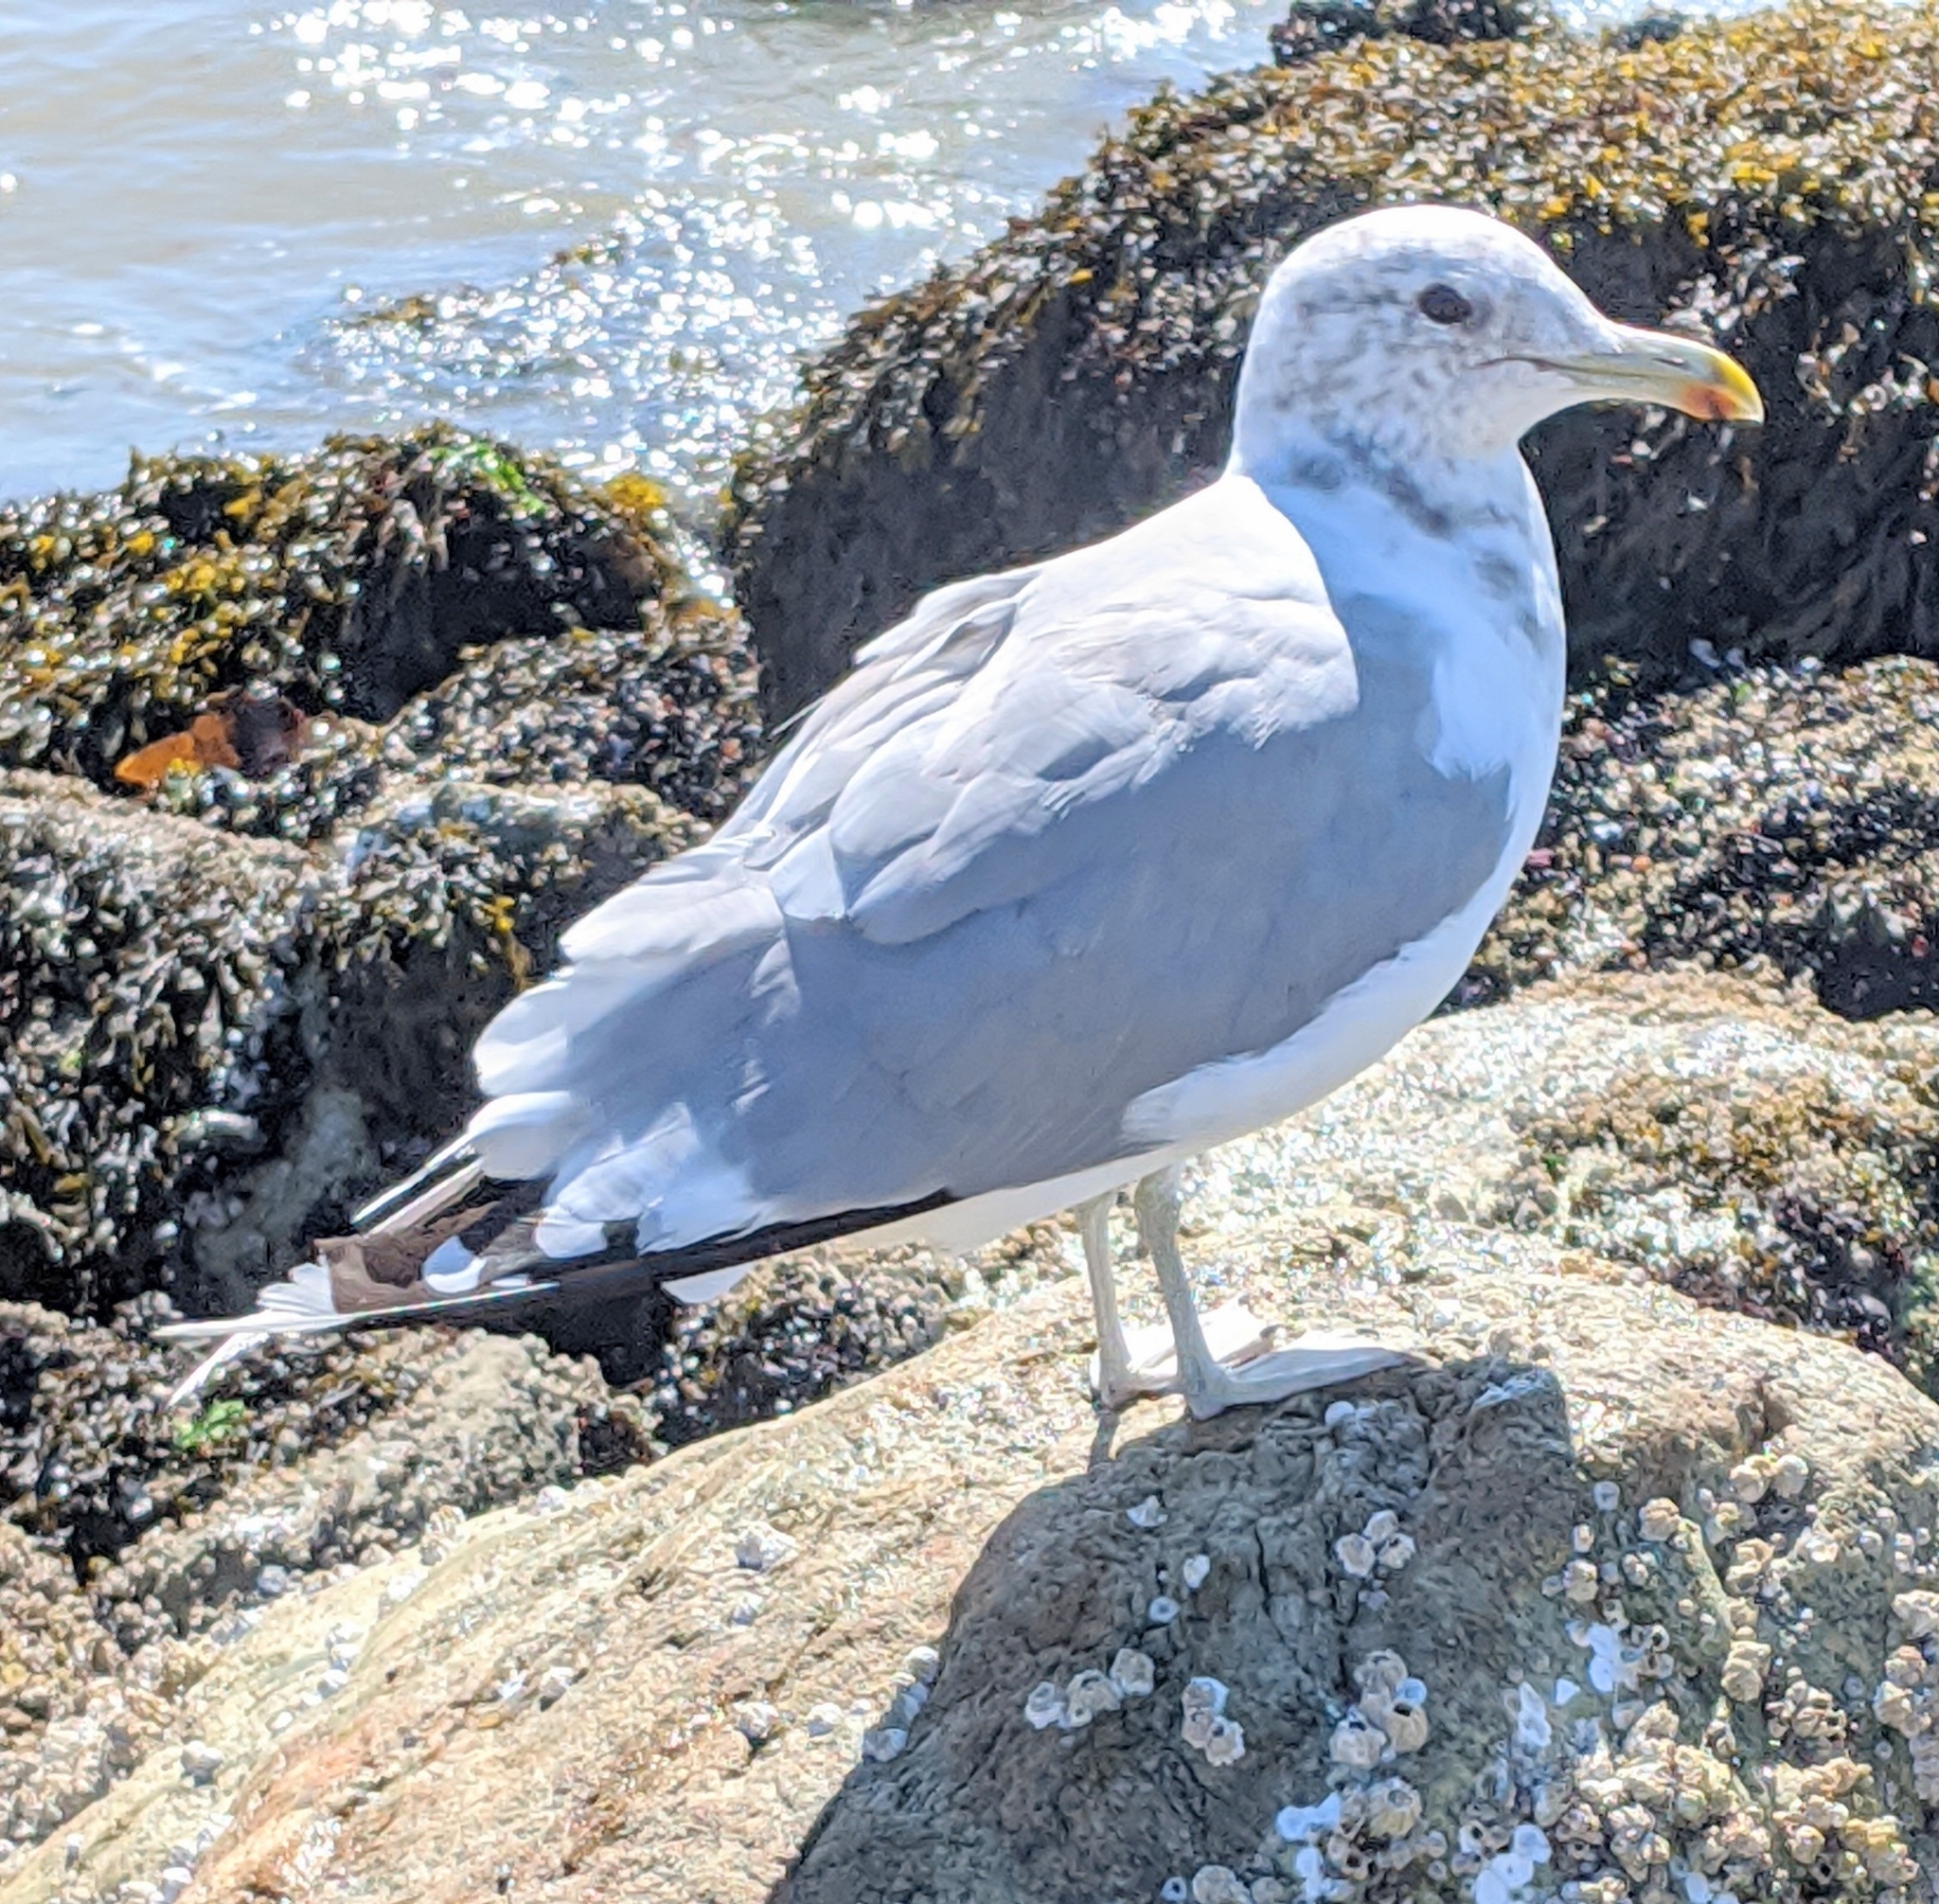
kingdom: Animalia
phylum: Chordata
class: Aves
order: Charadriiformes
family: Laridae
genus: Larus
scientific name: Larus californicus
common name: California gull
